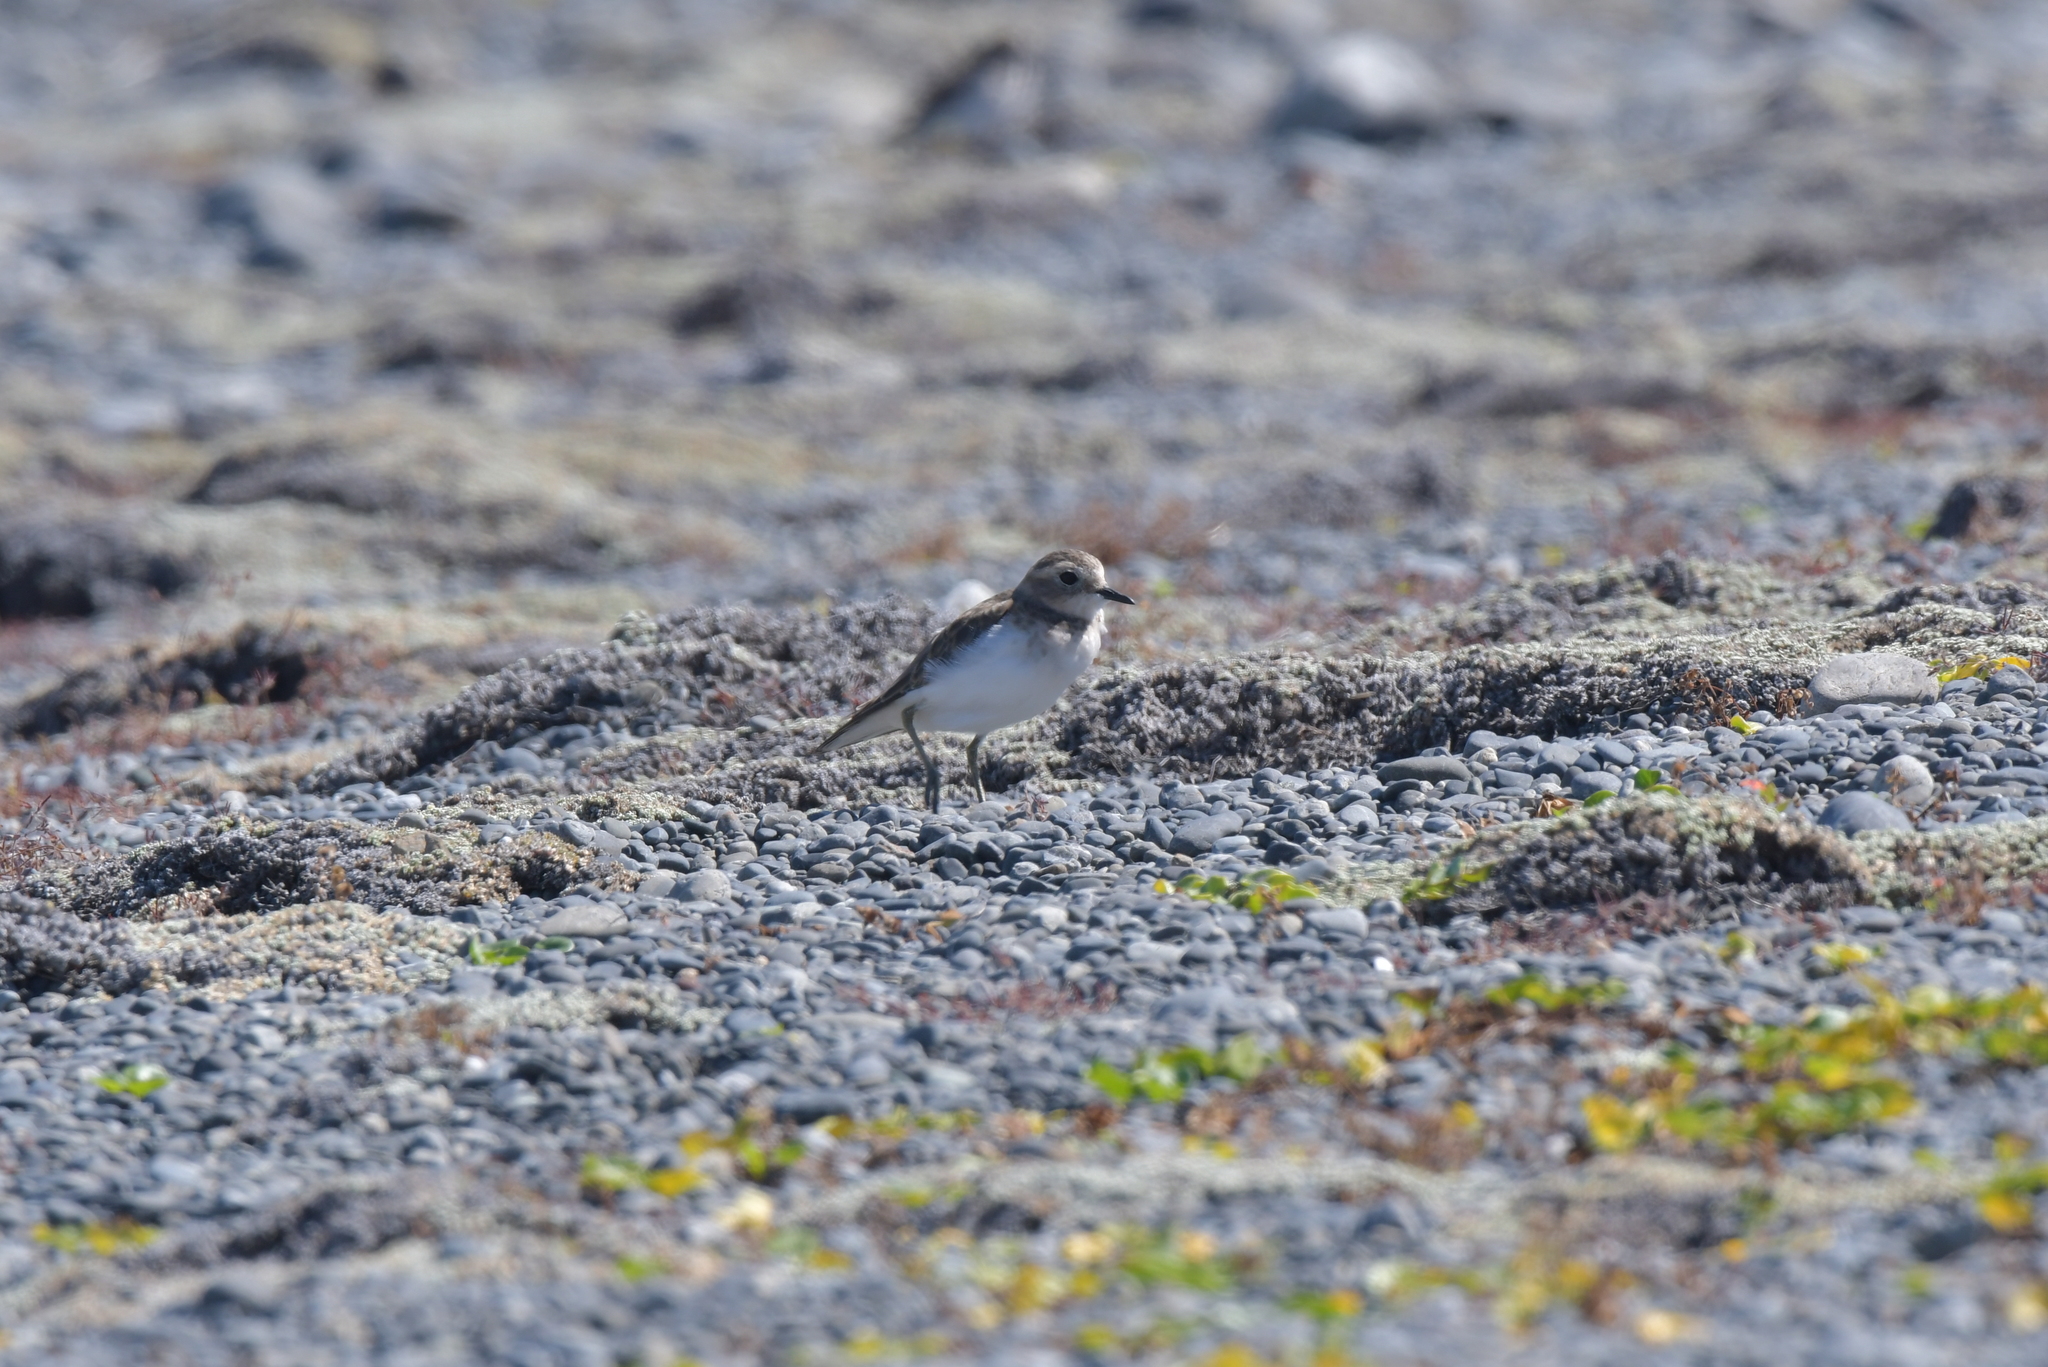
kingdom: Animalia
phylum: Chordata
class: Aves
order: Charadriiformes
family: Charadriidae
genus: Anarhynchus
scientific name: Anarhynchus
